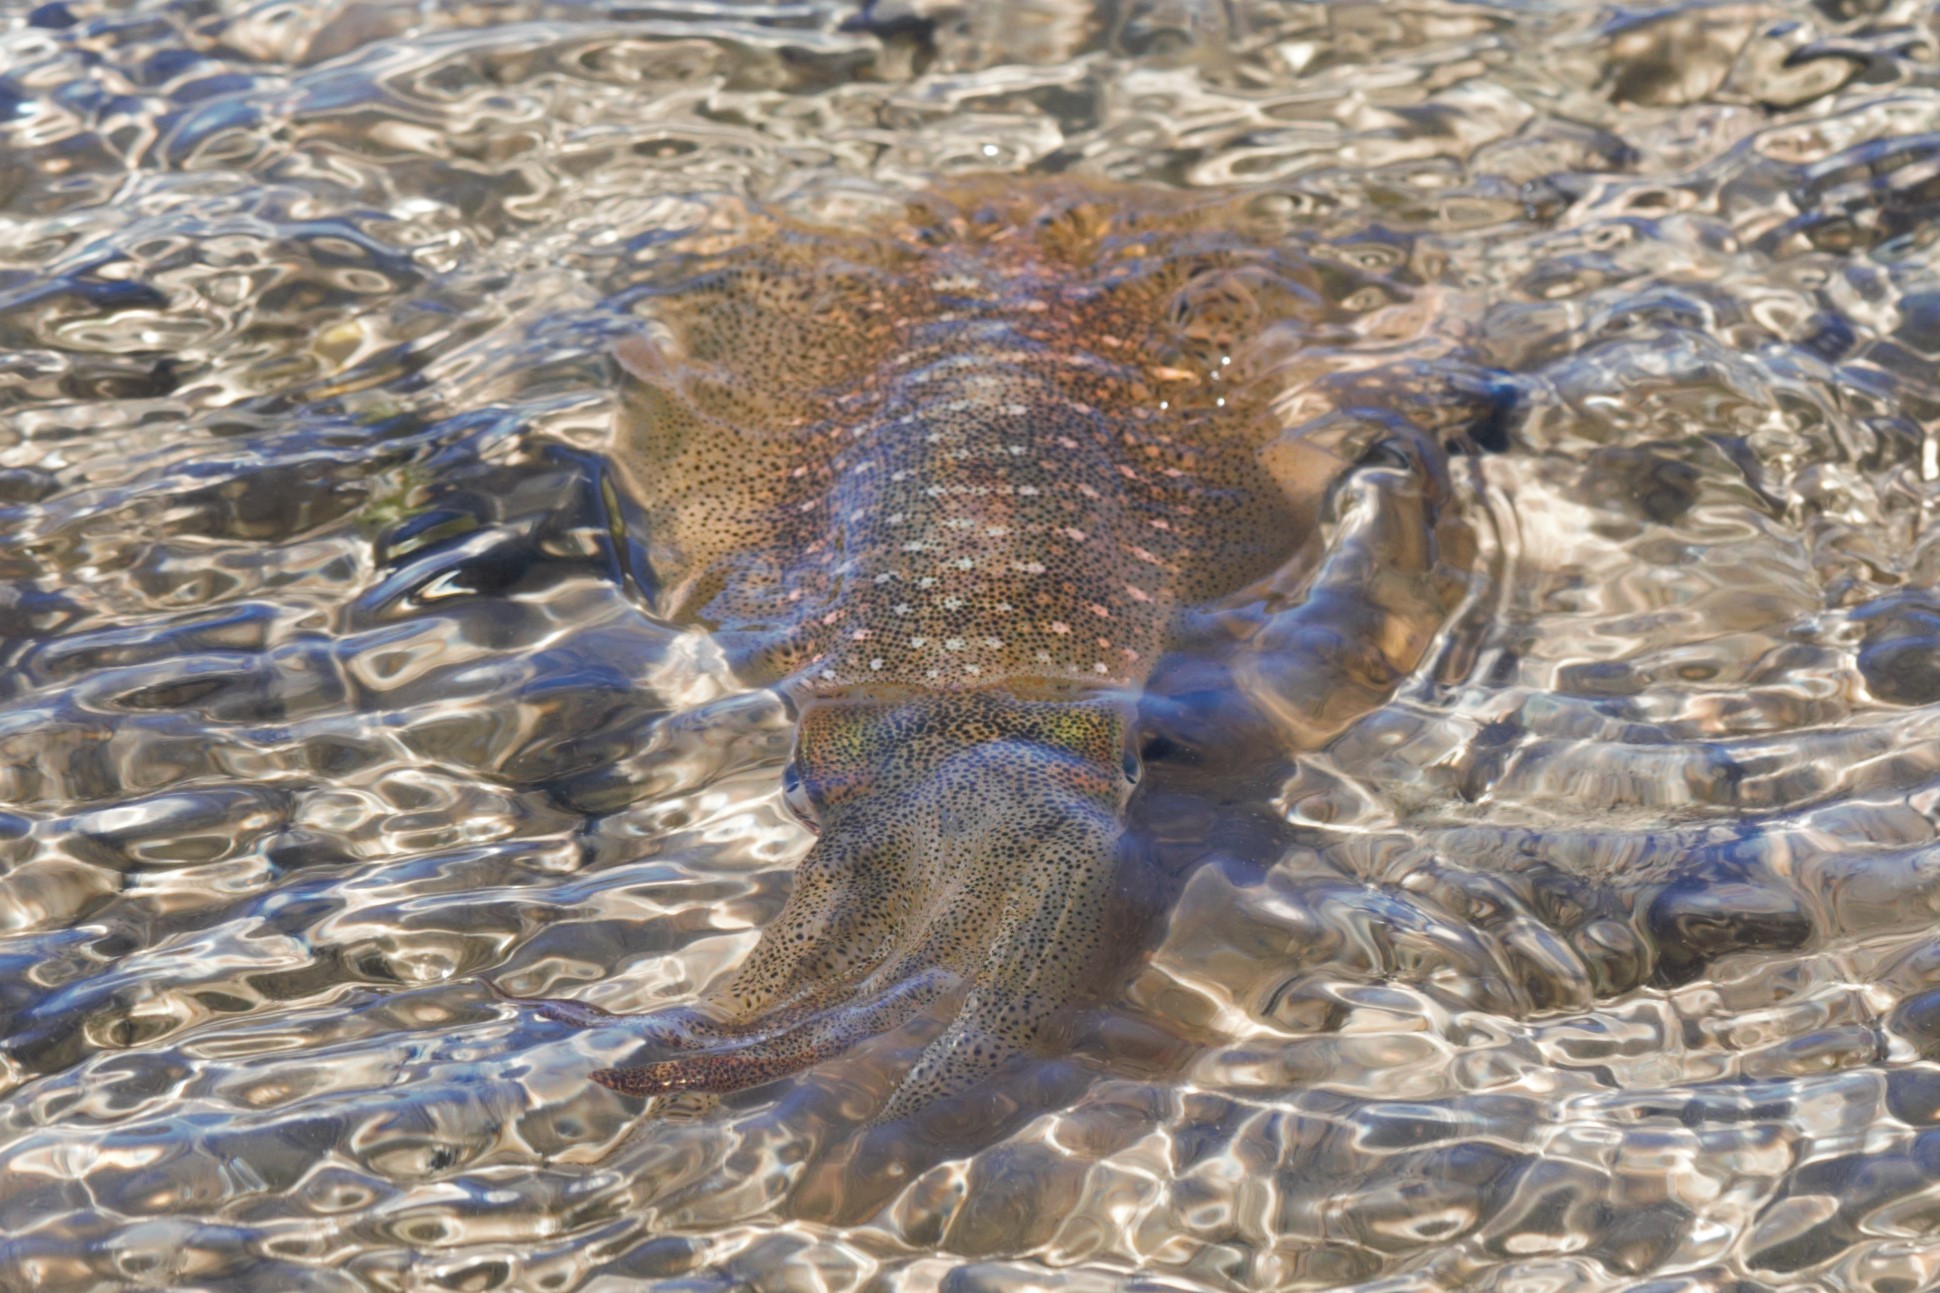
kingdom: Animalia
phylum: Mollusca
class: Cephalopoda
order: Myopsida
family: Loliginidae
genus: Sepioteuthis
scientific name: Sepioteuthis lessoniana
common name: Bigfin reef squid
